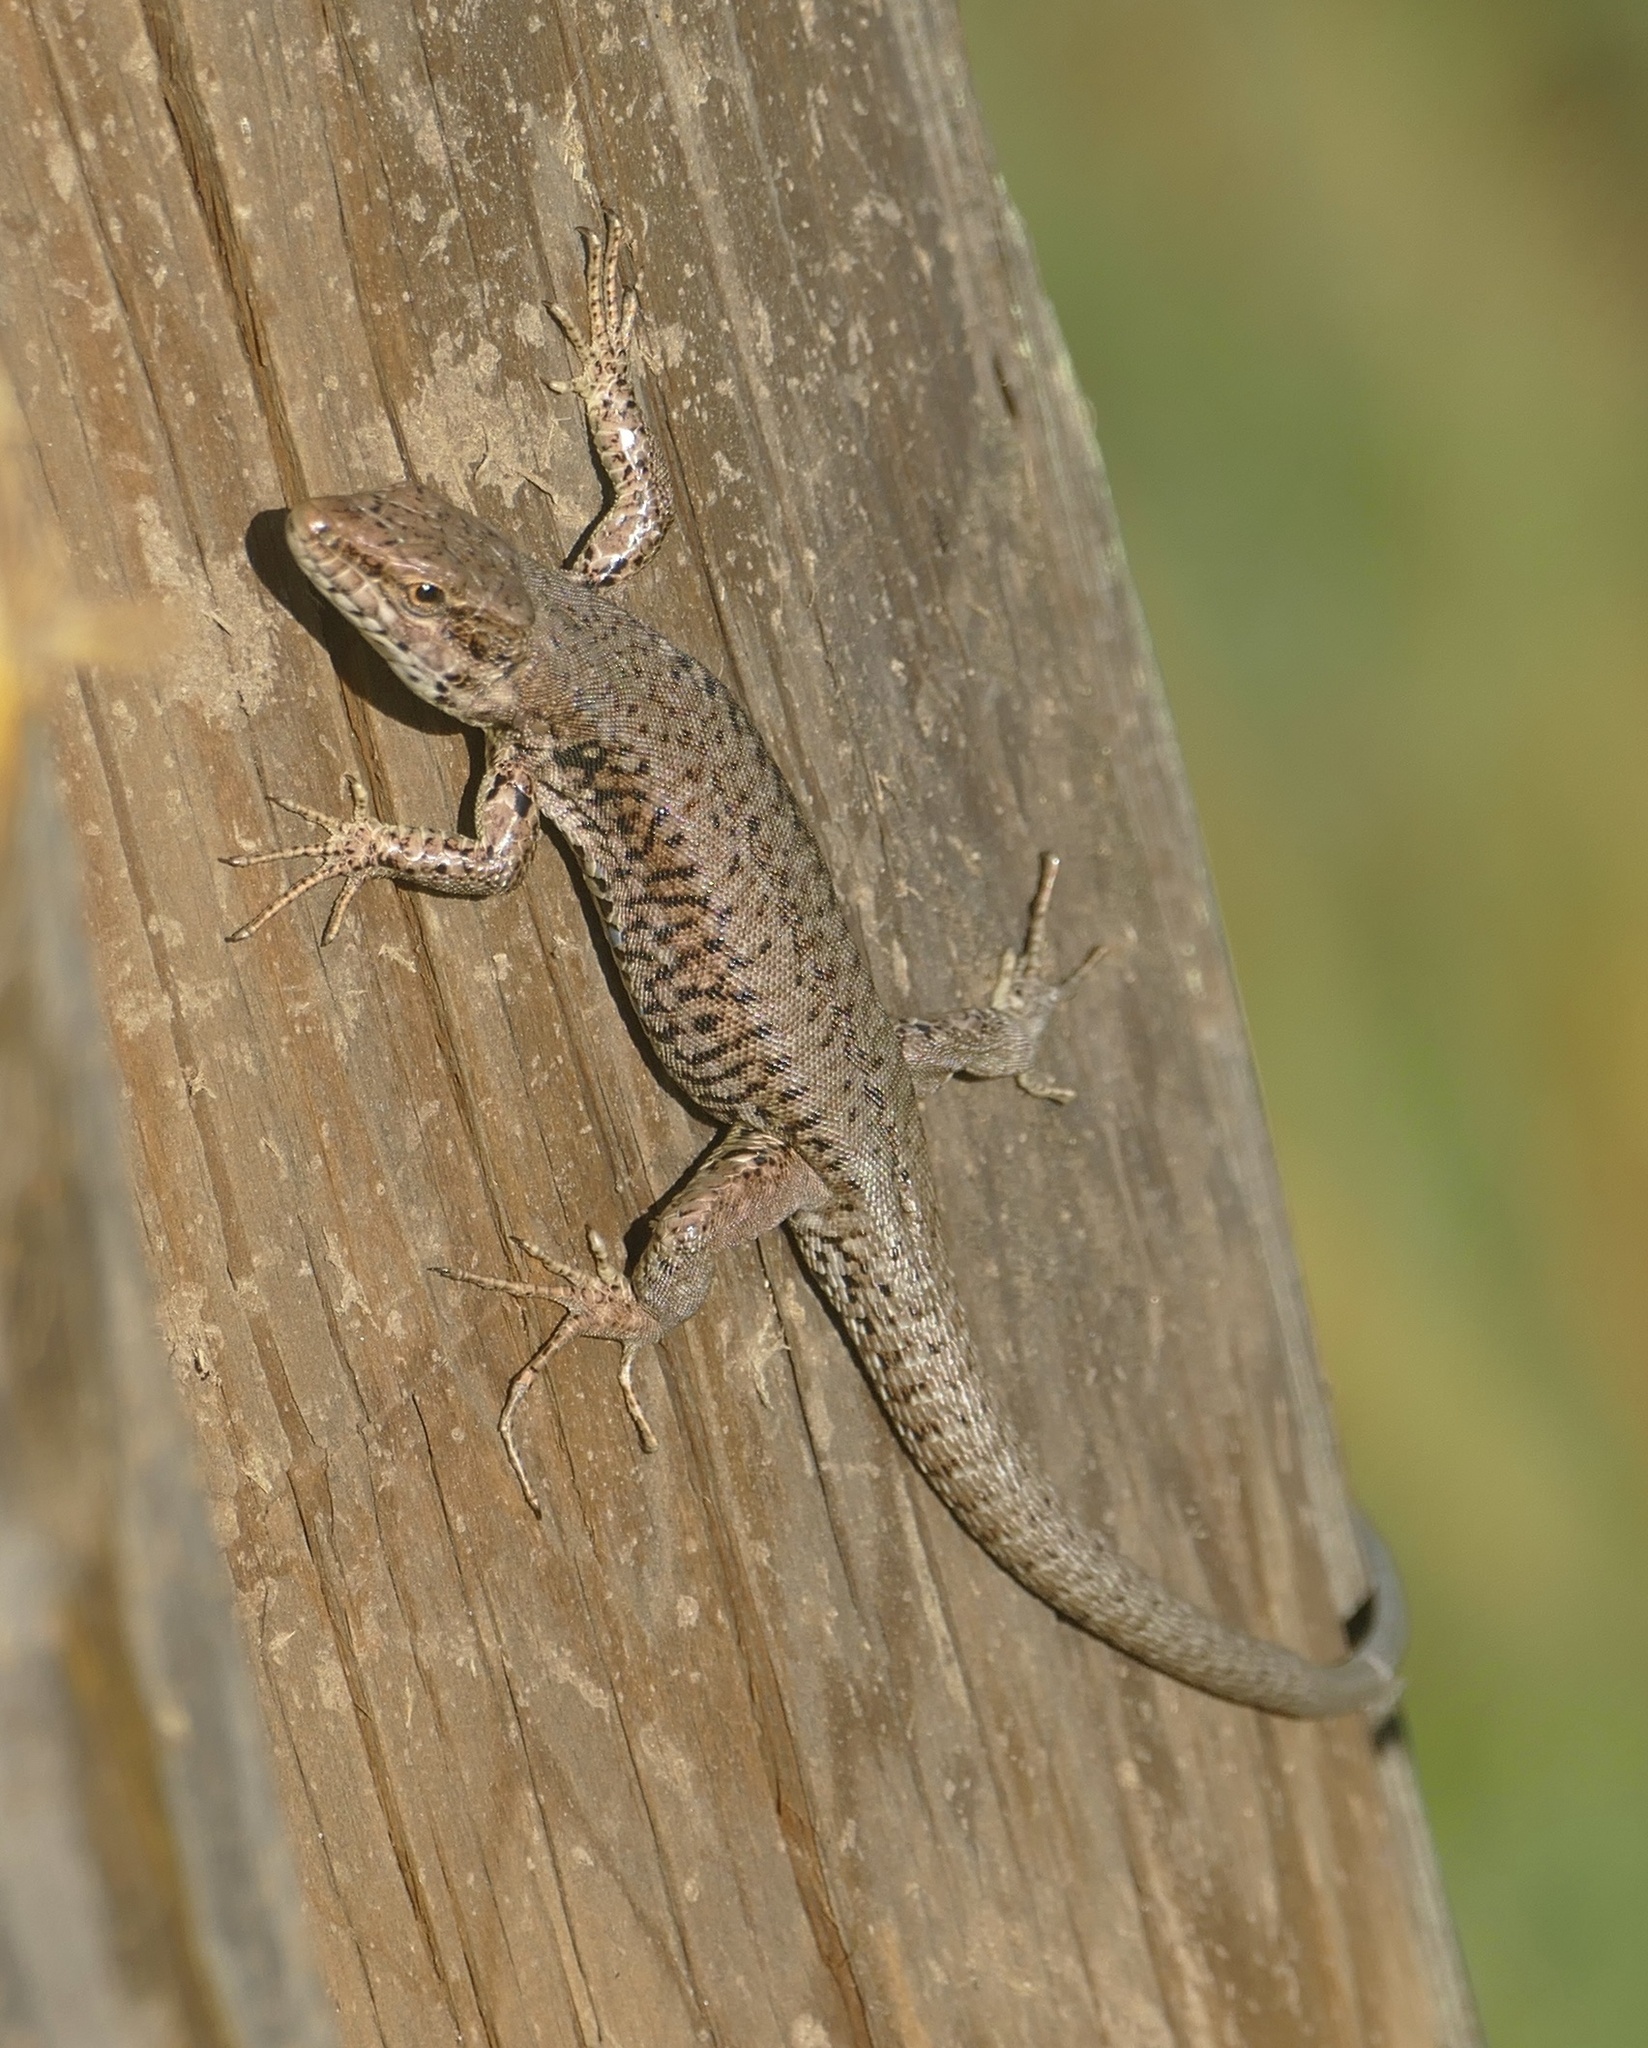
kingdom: Animalia
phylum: Chordata
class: Squamata
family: Lacertidae
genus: Podarcis
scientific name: Podarcis muralis
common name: Common wall lizard
